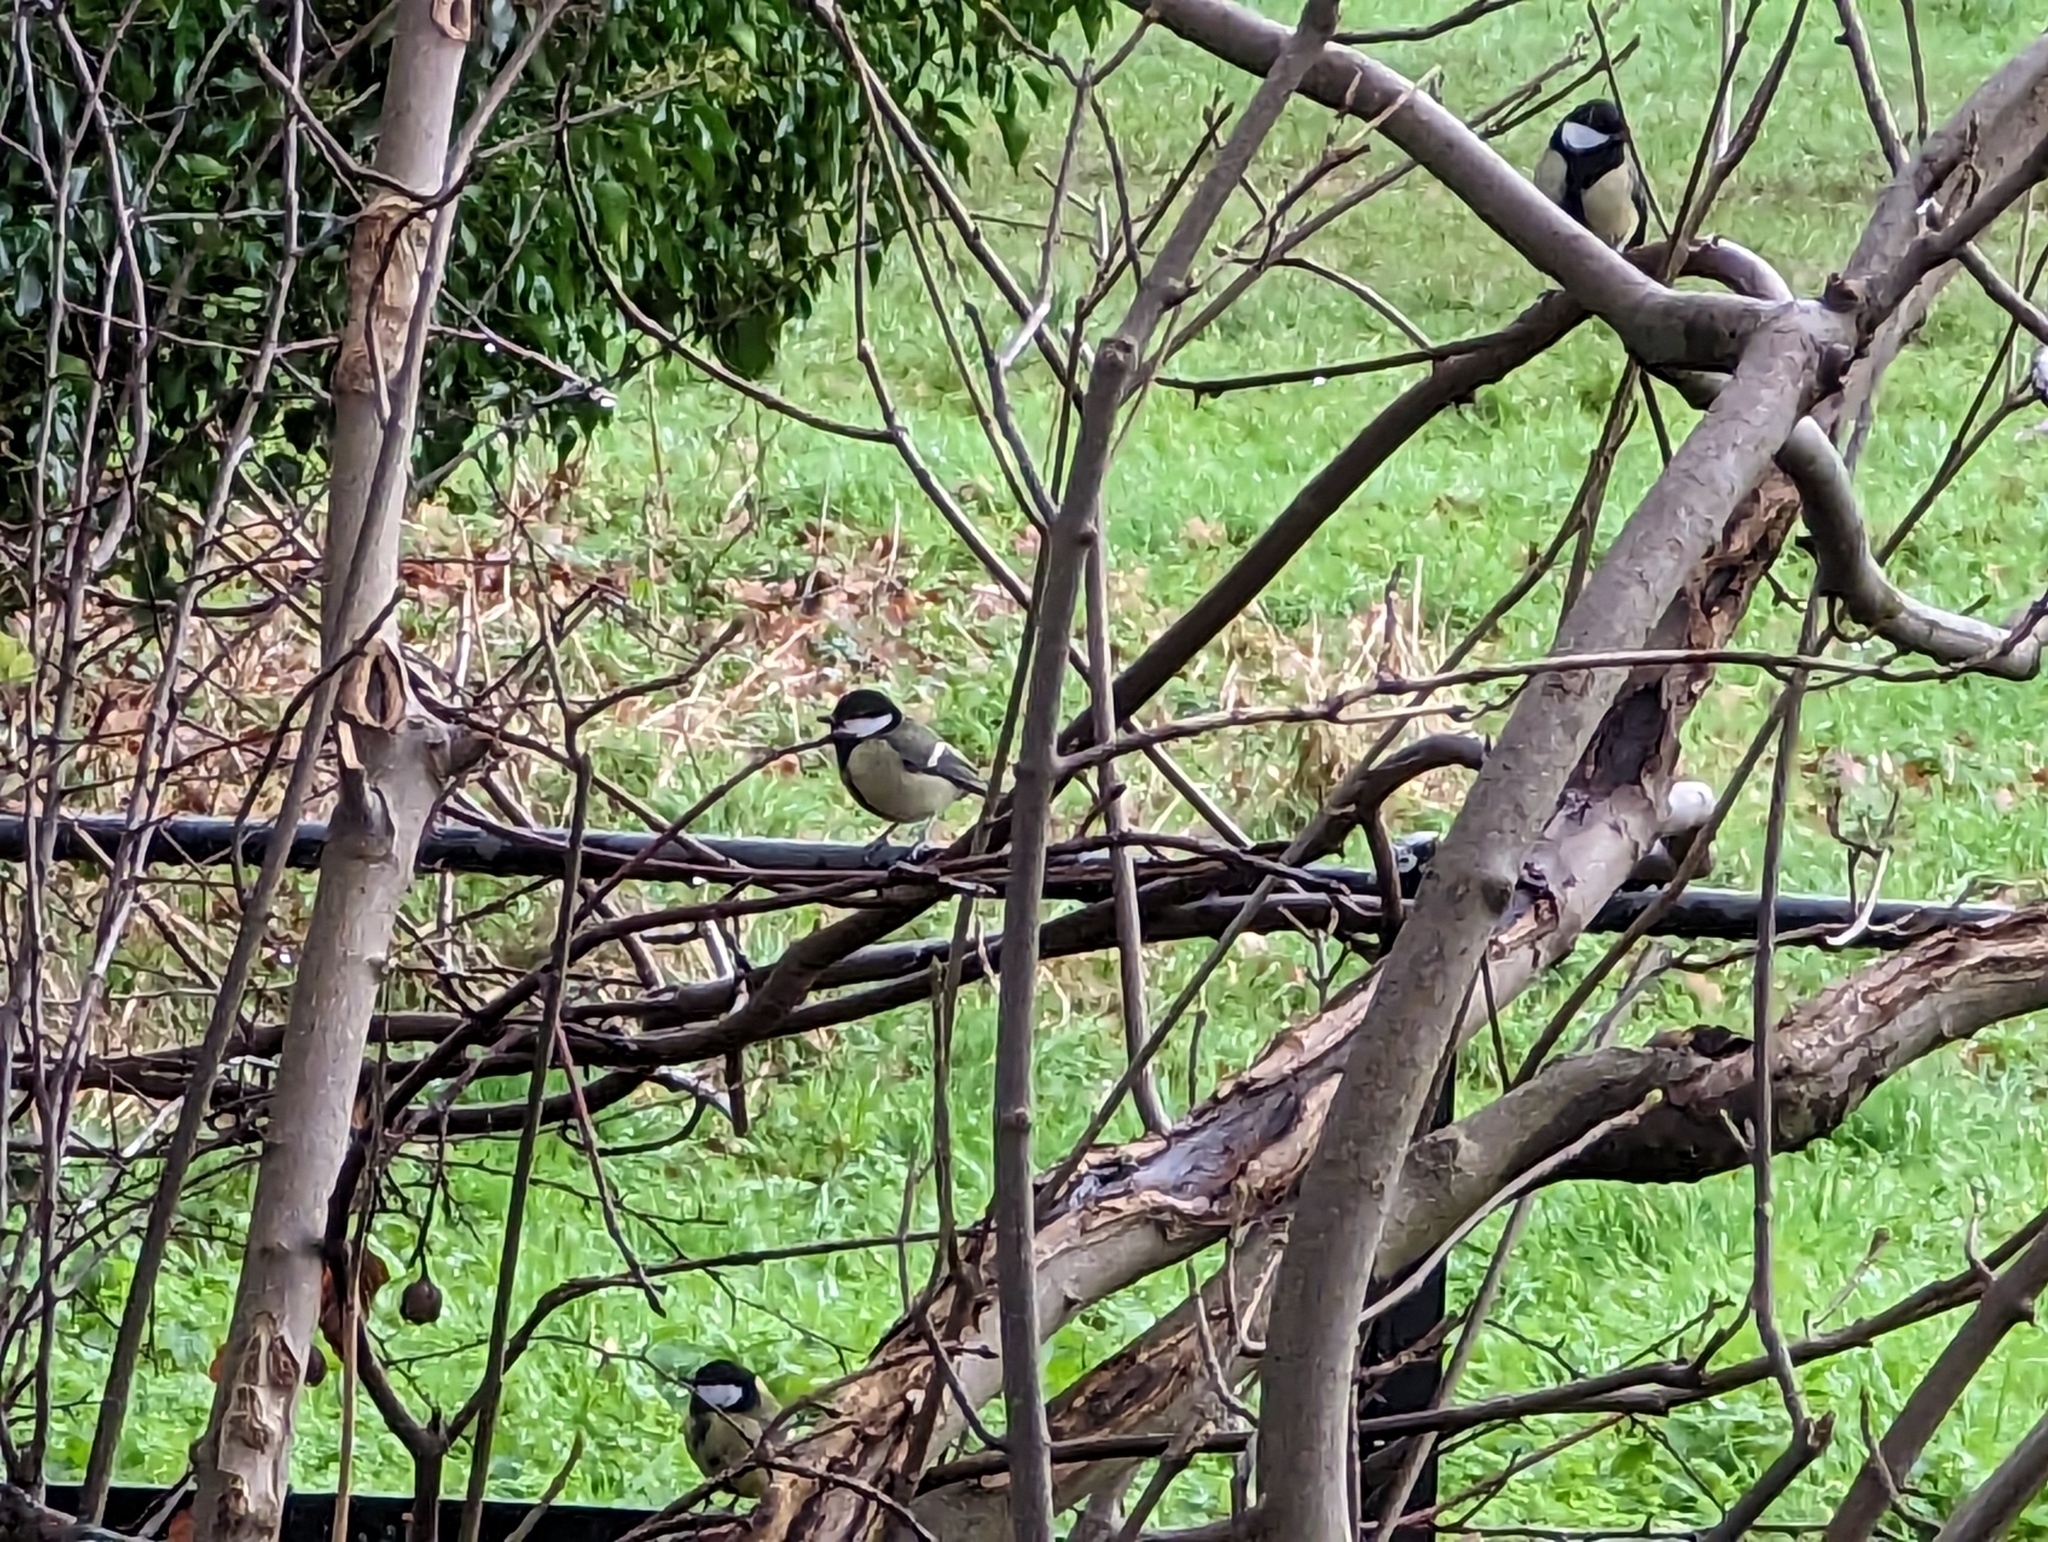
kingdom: Animalia
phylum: Chordata
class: Aves
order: Passeriformes
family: Paridae
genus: Parus
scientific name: Parus major
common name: Great tit
